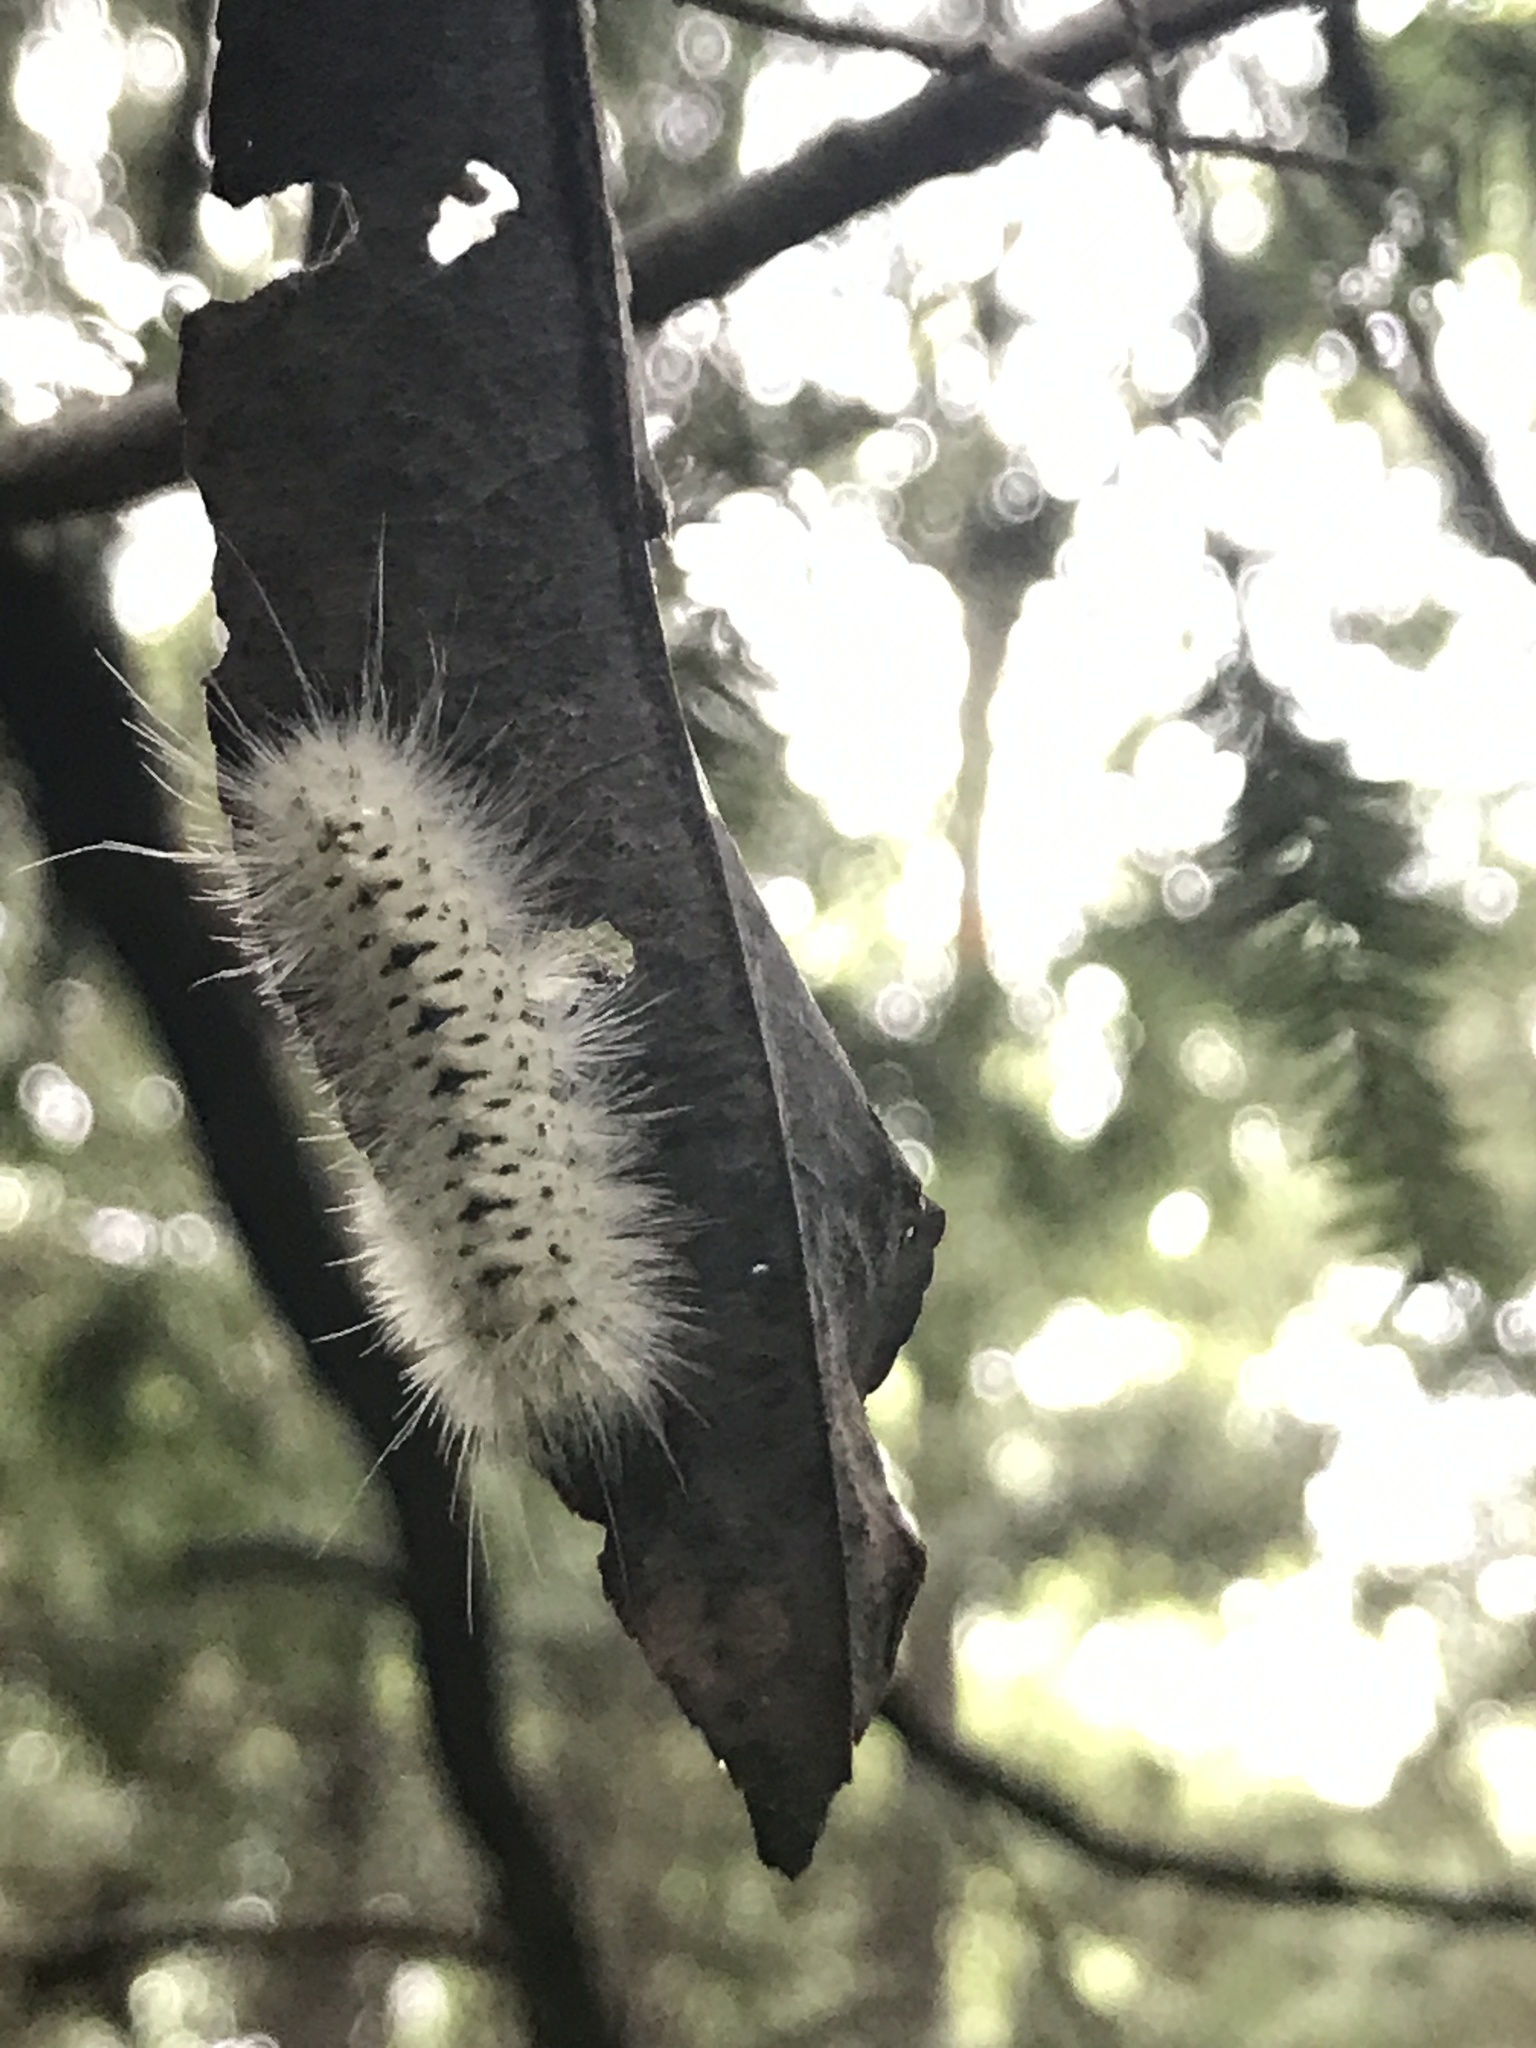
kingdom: Animalia
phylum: Arthropoda
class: Insecta
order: Lepidoptera
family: Erebidae
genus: Lophocampa
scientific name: Lophocampa caryae
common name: Hickory tussock moth
